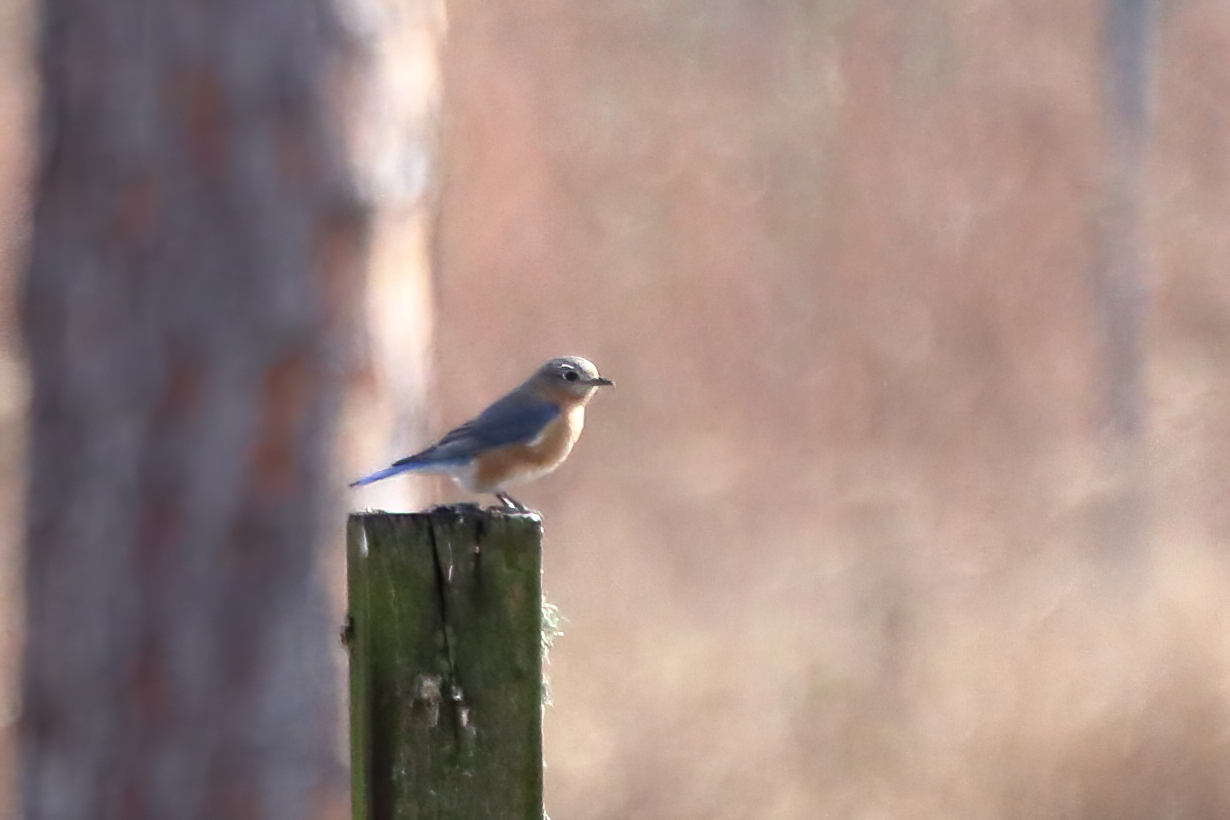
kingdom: Animalia
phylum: Chordata
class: Aves
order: Passeriformes
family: Turdidae
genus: Sialia
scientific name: Sialia sialis
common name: Eastern bluebird
